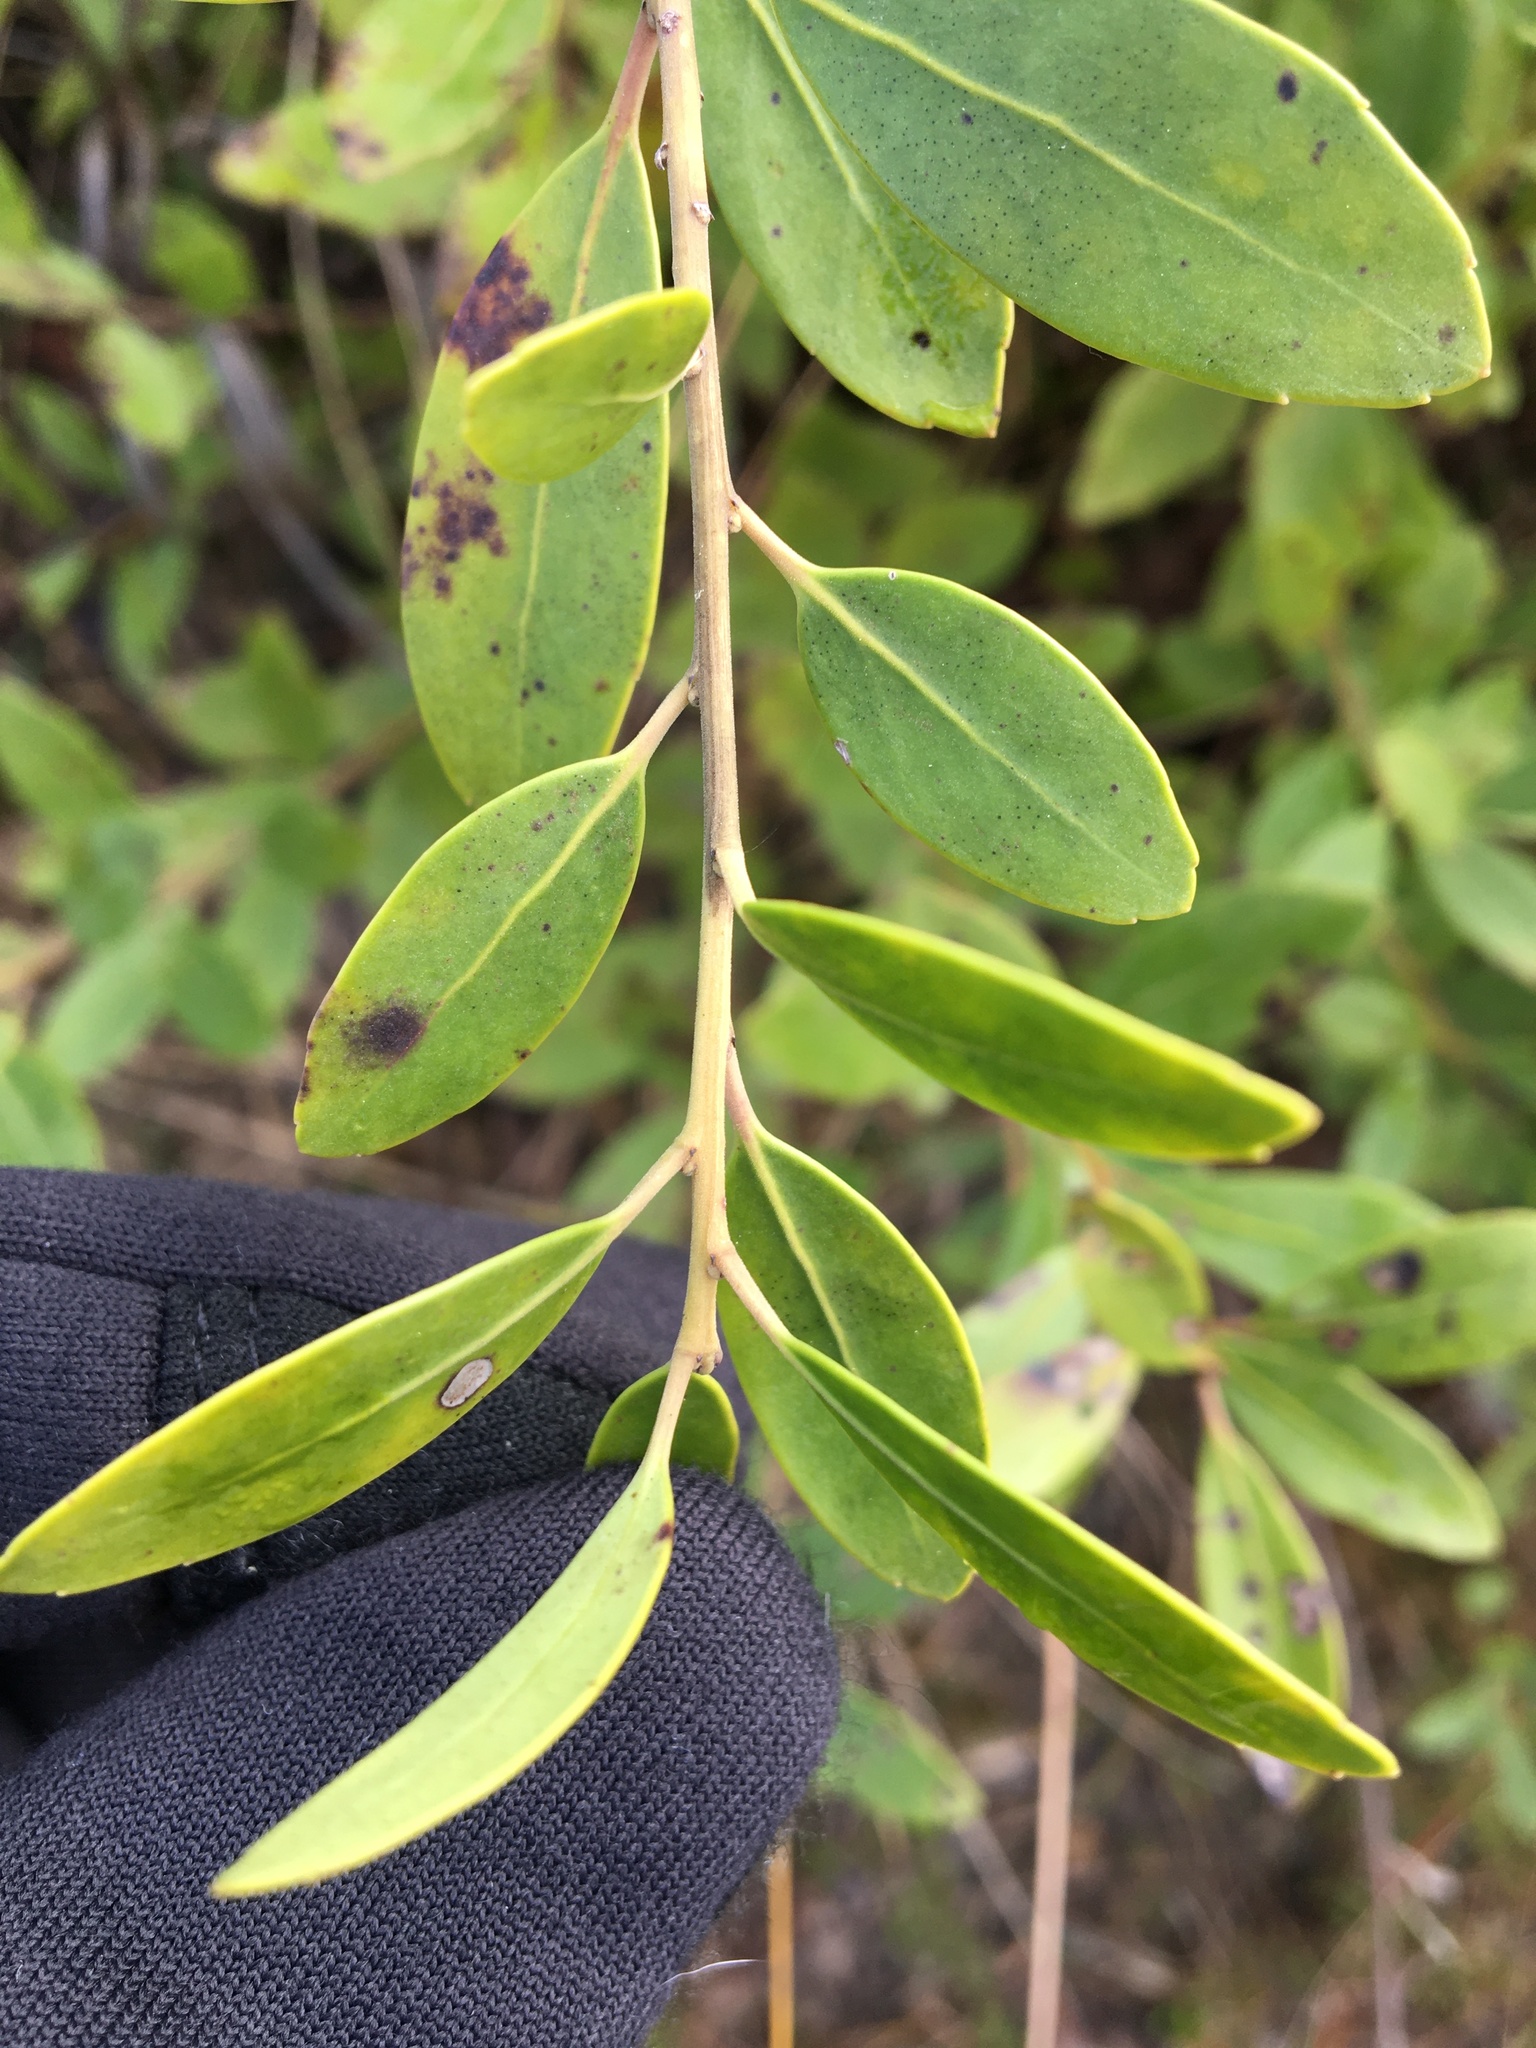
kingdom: Plantae
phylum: Tracheophyta
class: Magnoliopsida
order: Aquifoliales
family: Aquifoliaceae
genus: Ilex
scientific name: Ilex glabra
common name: Bitter gallberry
